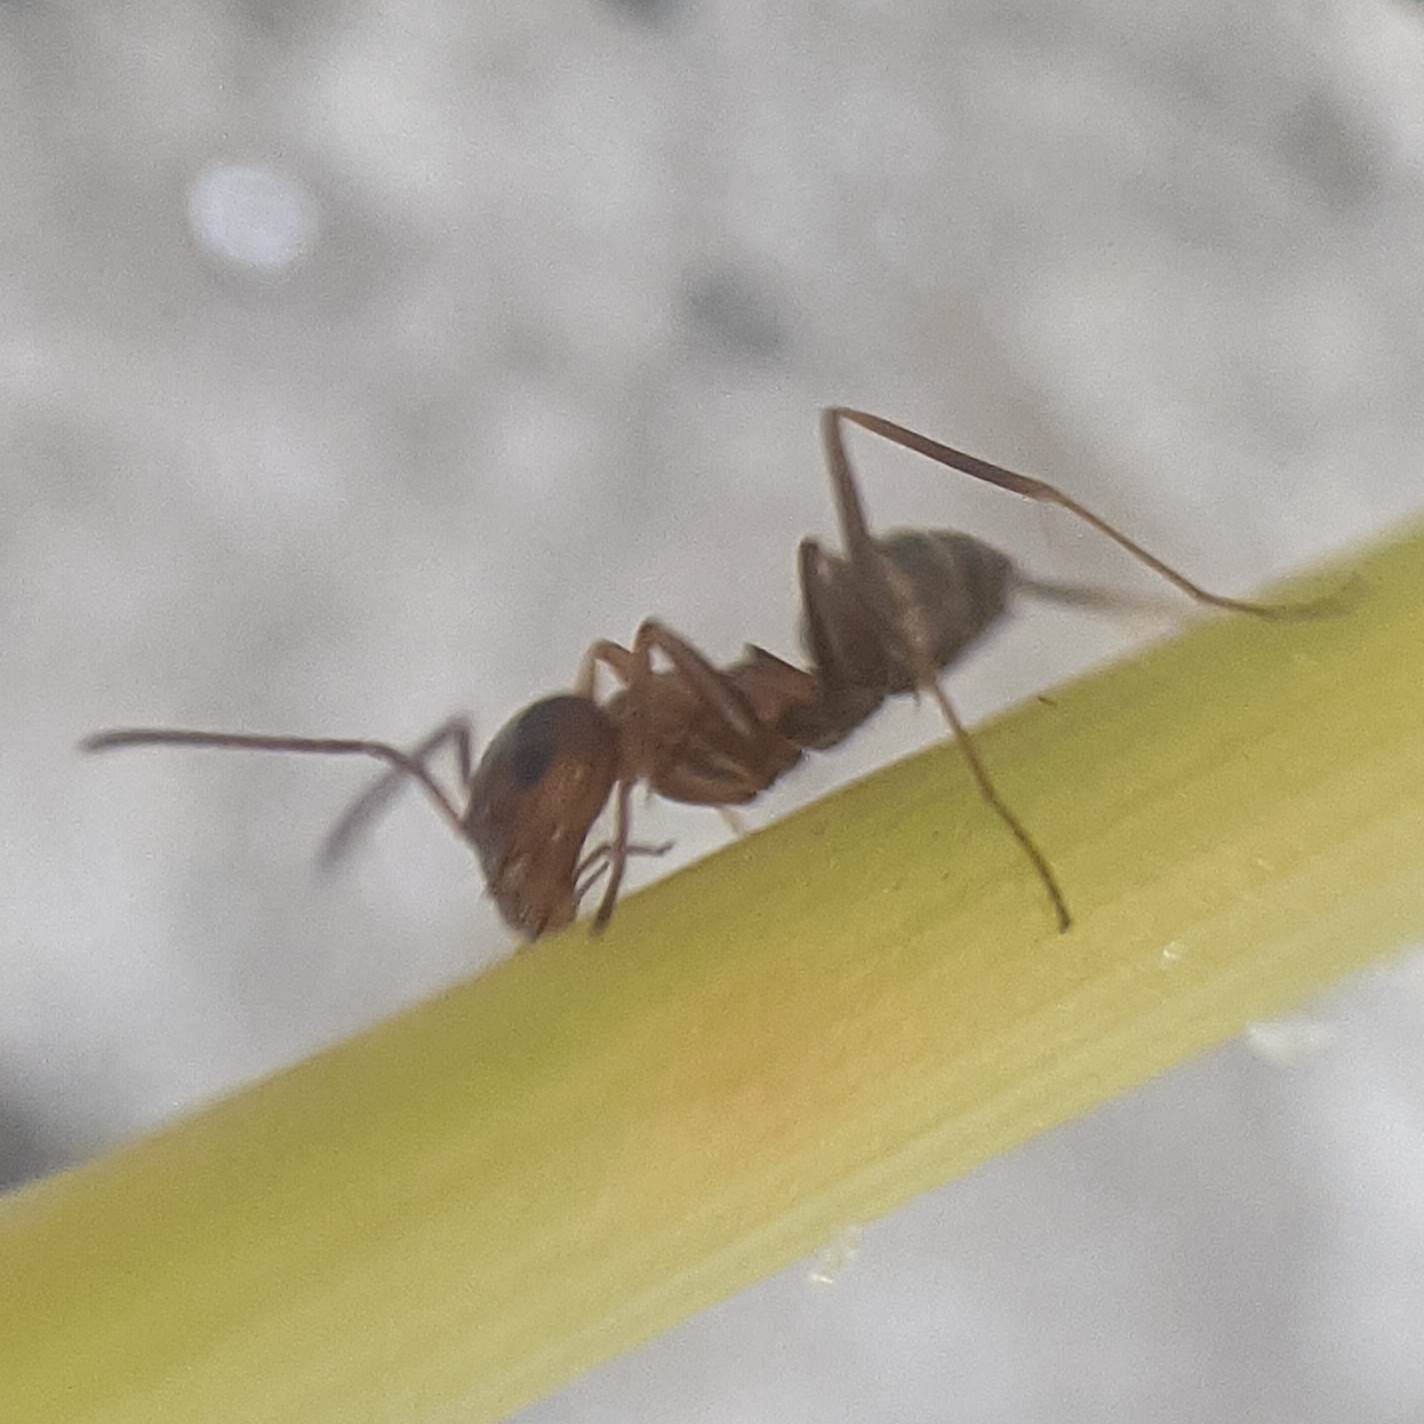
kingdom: Animalia
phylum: Arthropoda
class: Insecta
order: Hymenoptera
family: Formicidae
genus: Dorymyrmex
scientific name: Dorymyrmex bureni
